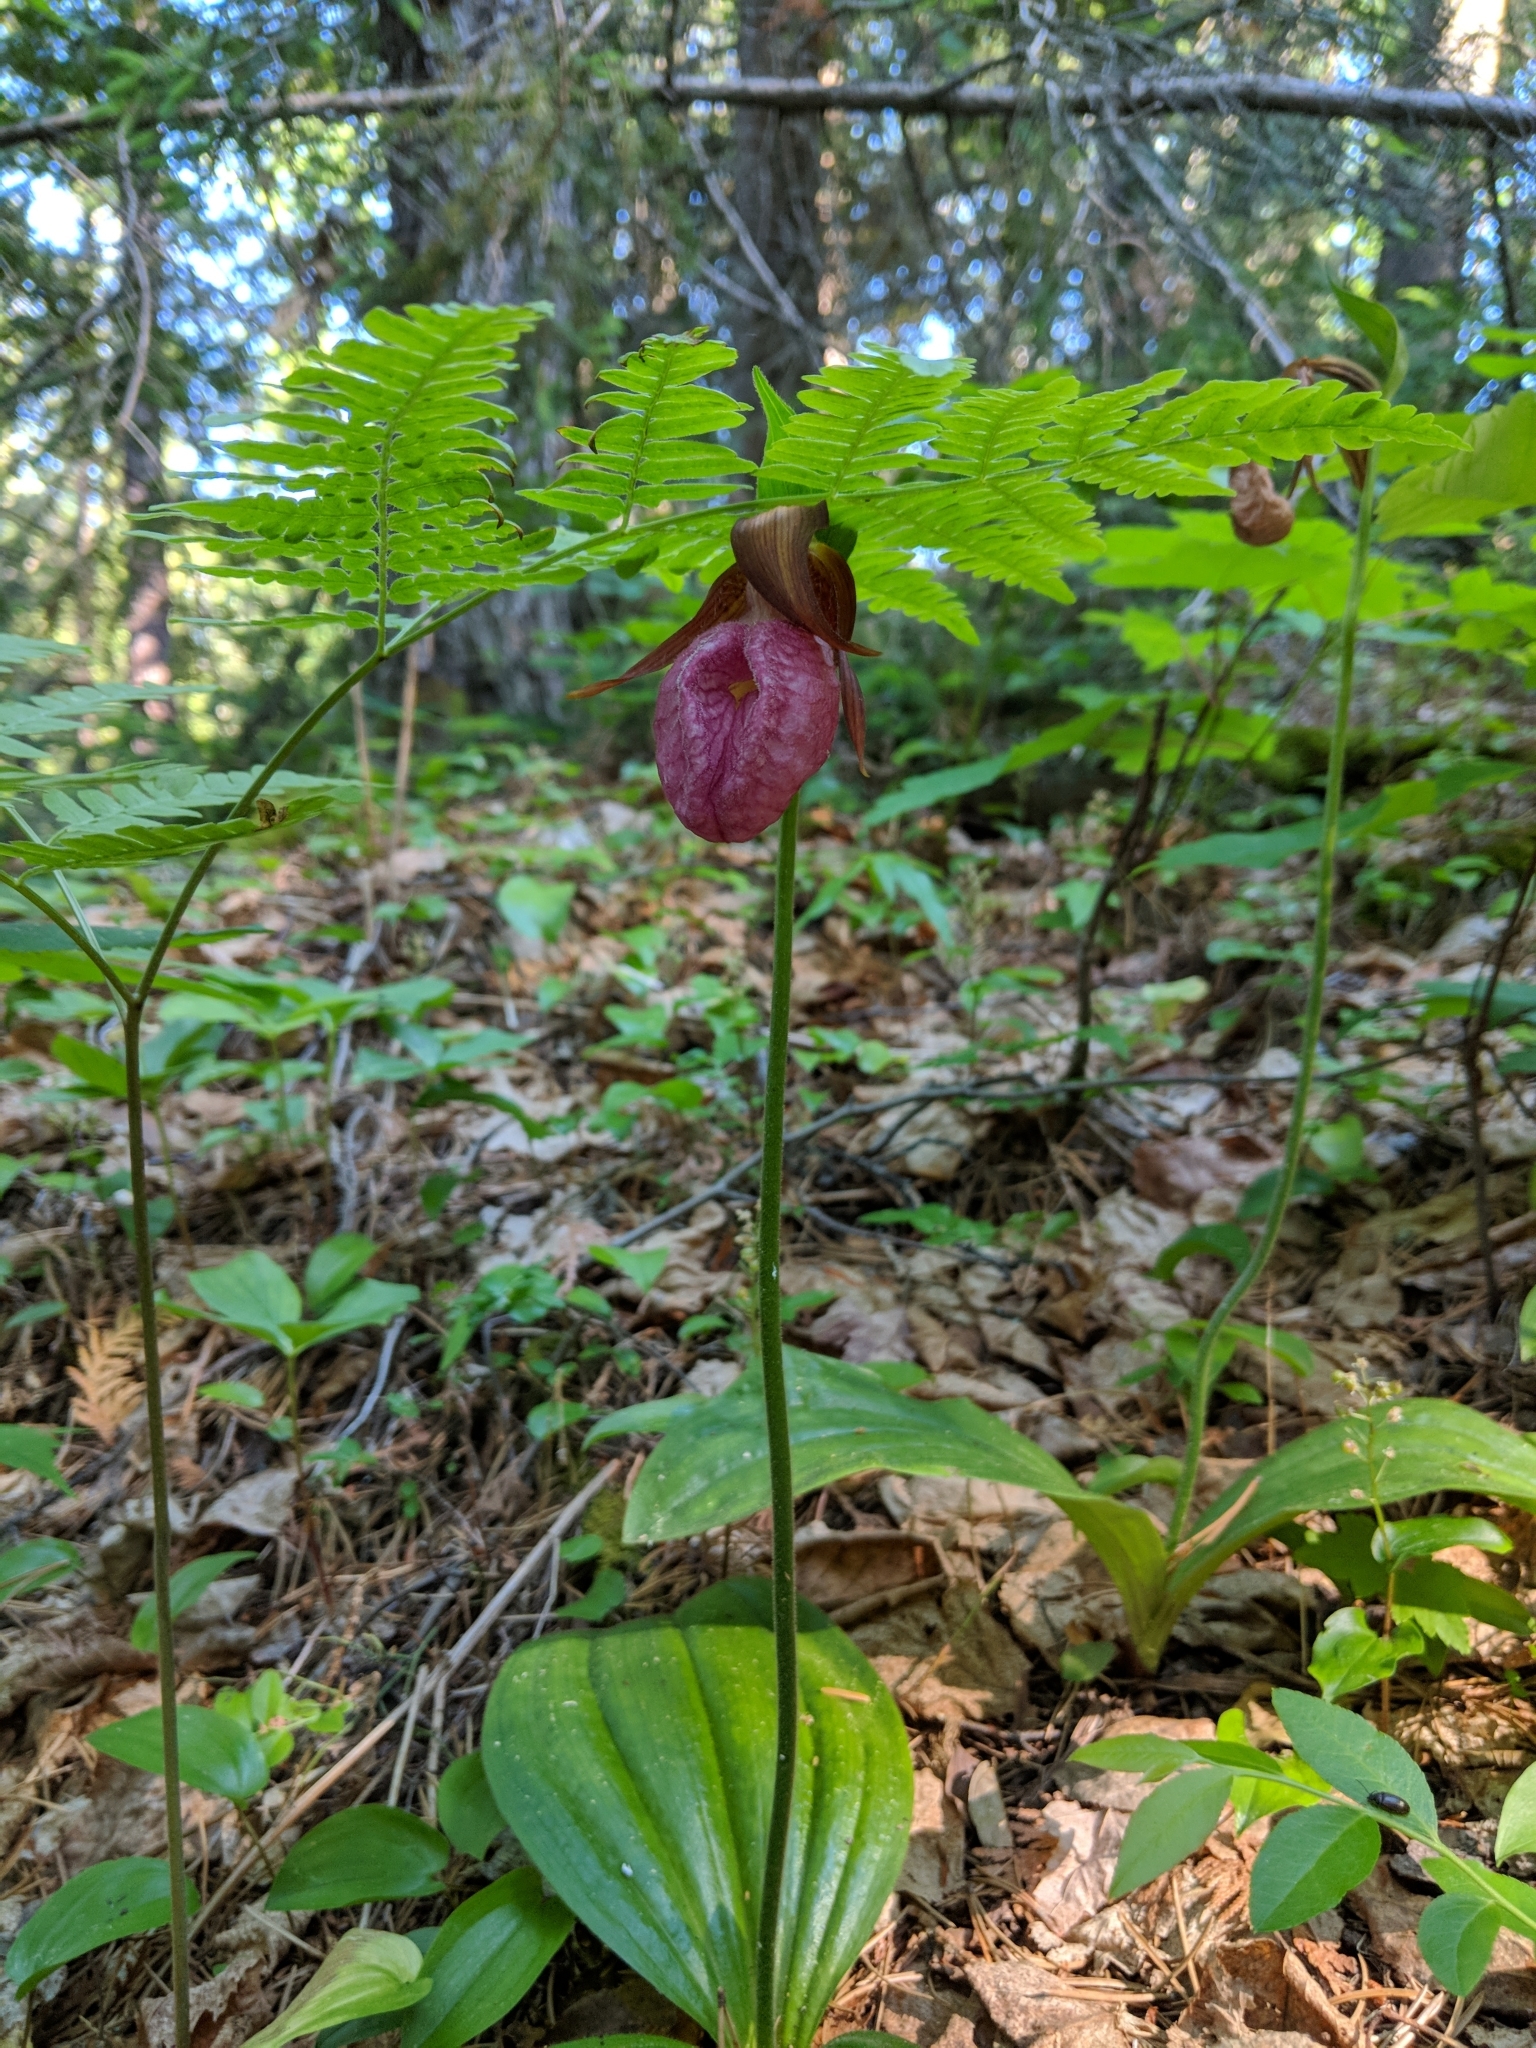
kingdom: Plantae
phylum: Tracheophyta
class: Liliopsida
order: Asparagales
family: Orchidaceae
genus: Cypripedium
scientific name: Cypripedium acaule
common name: Pink lady's-slipper
